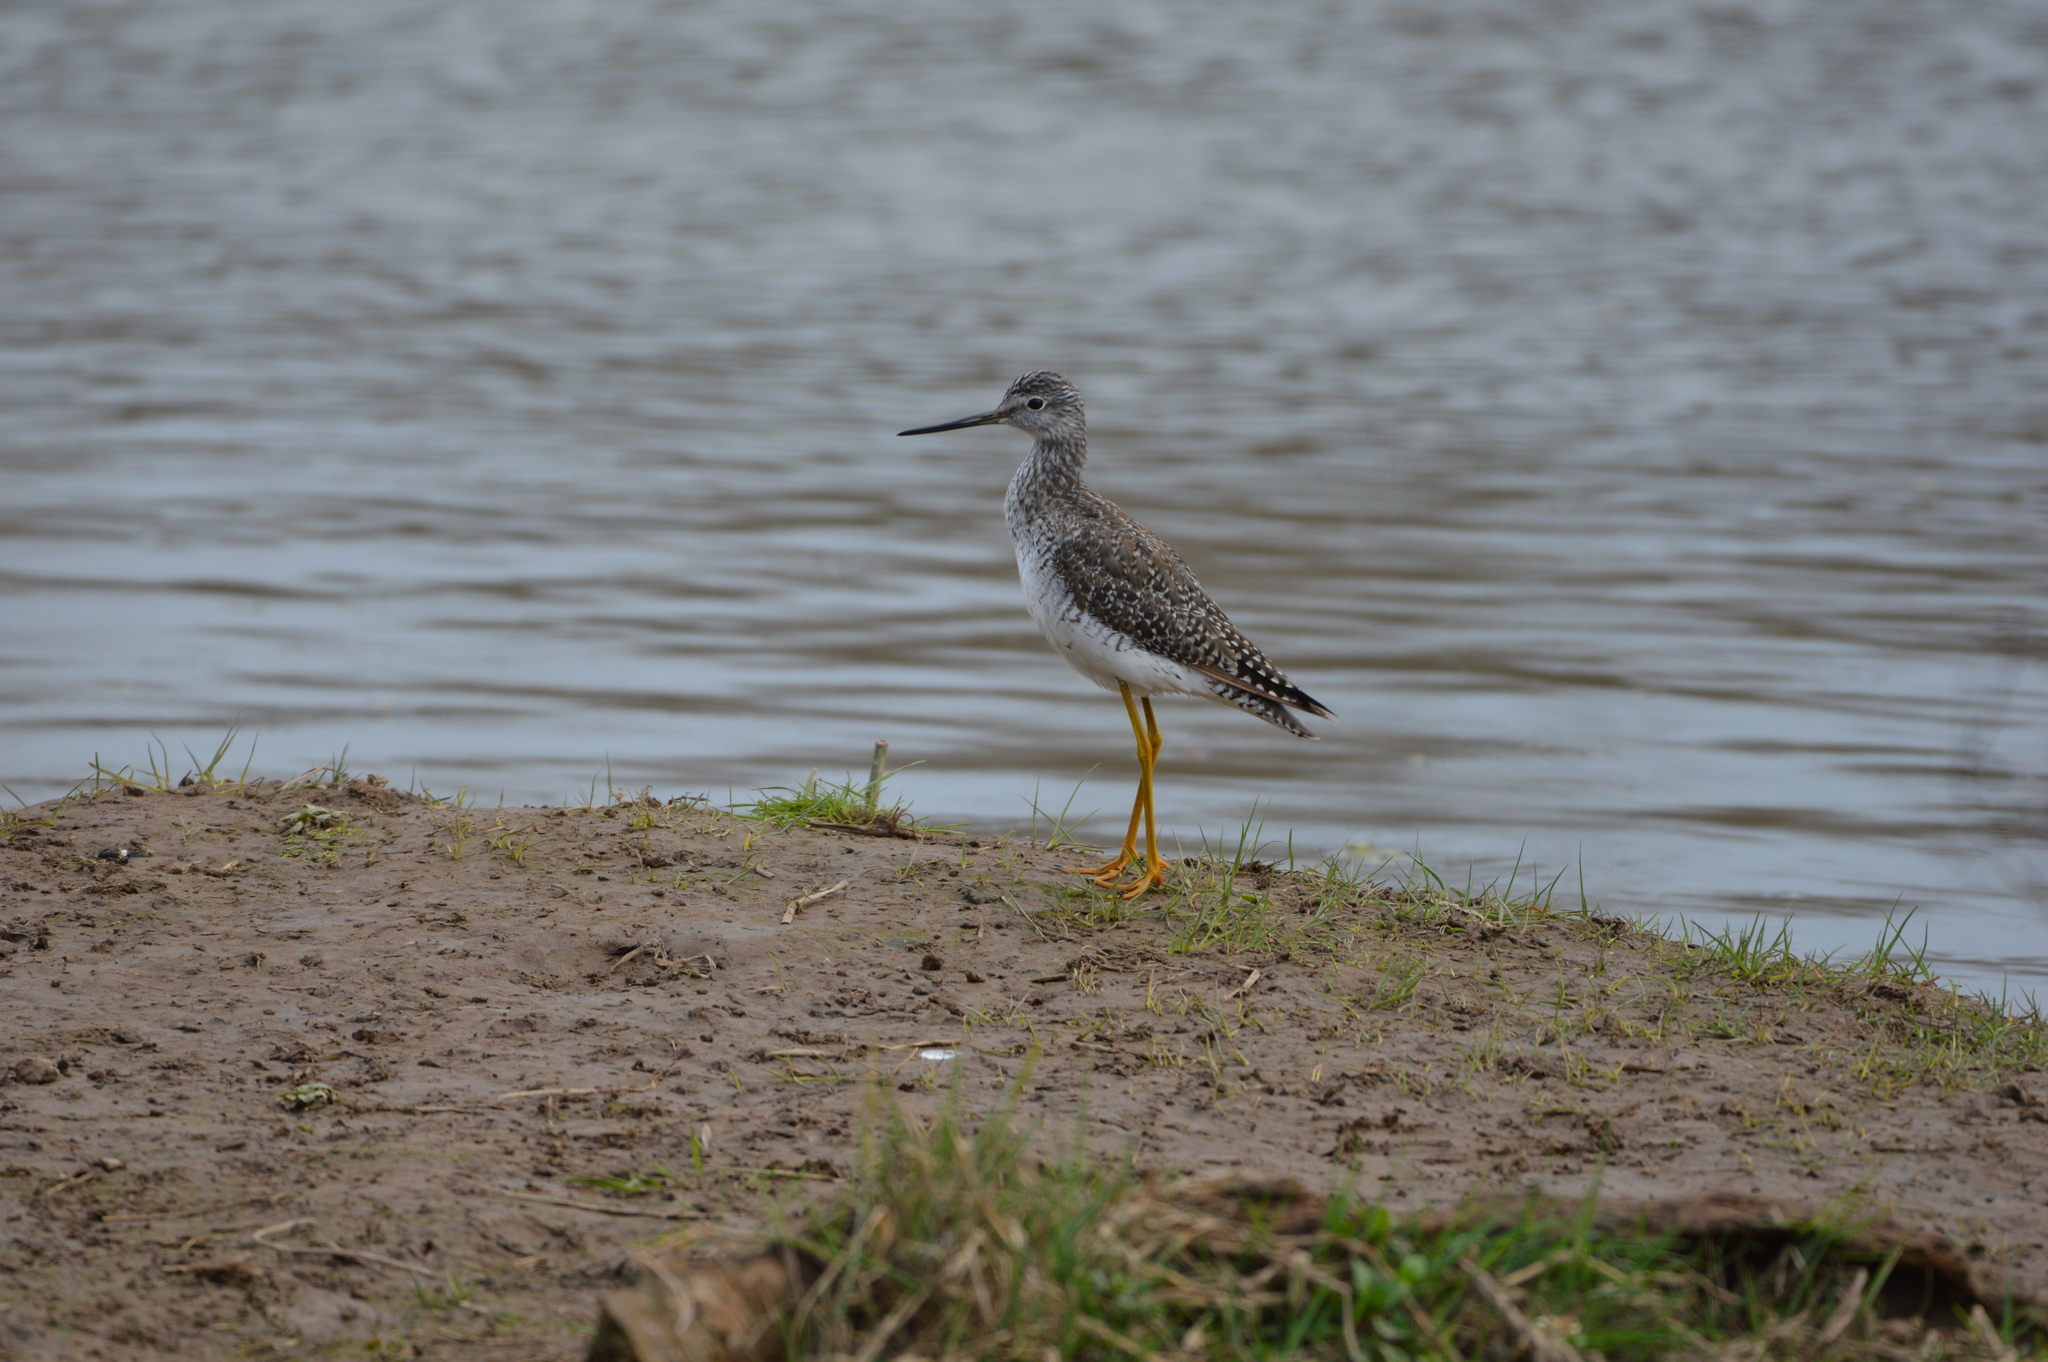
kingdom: Animalia
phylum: Chordata
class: Aves
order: Charadriiformes
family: Scolopacidae
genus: Tringa
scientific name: Tringa melanoleuca
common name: Greater yellowlegs
